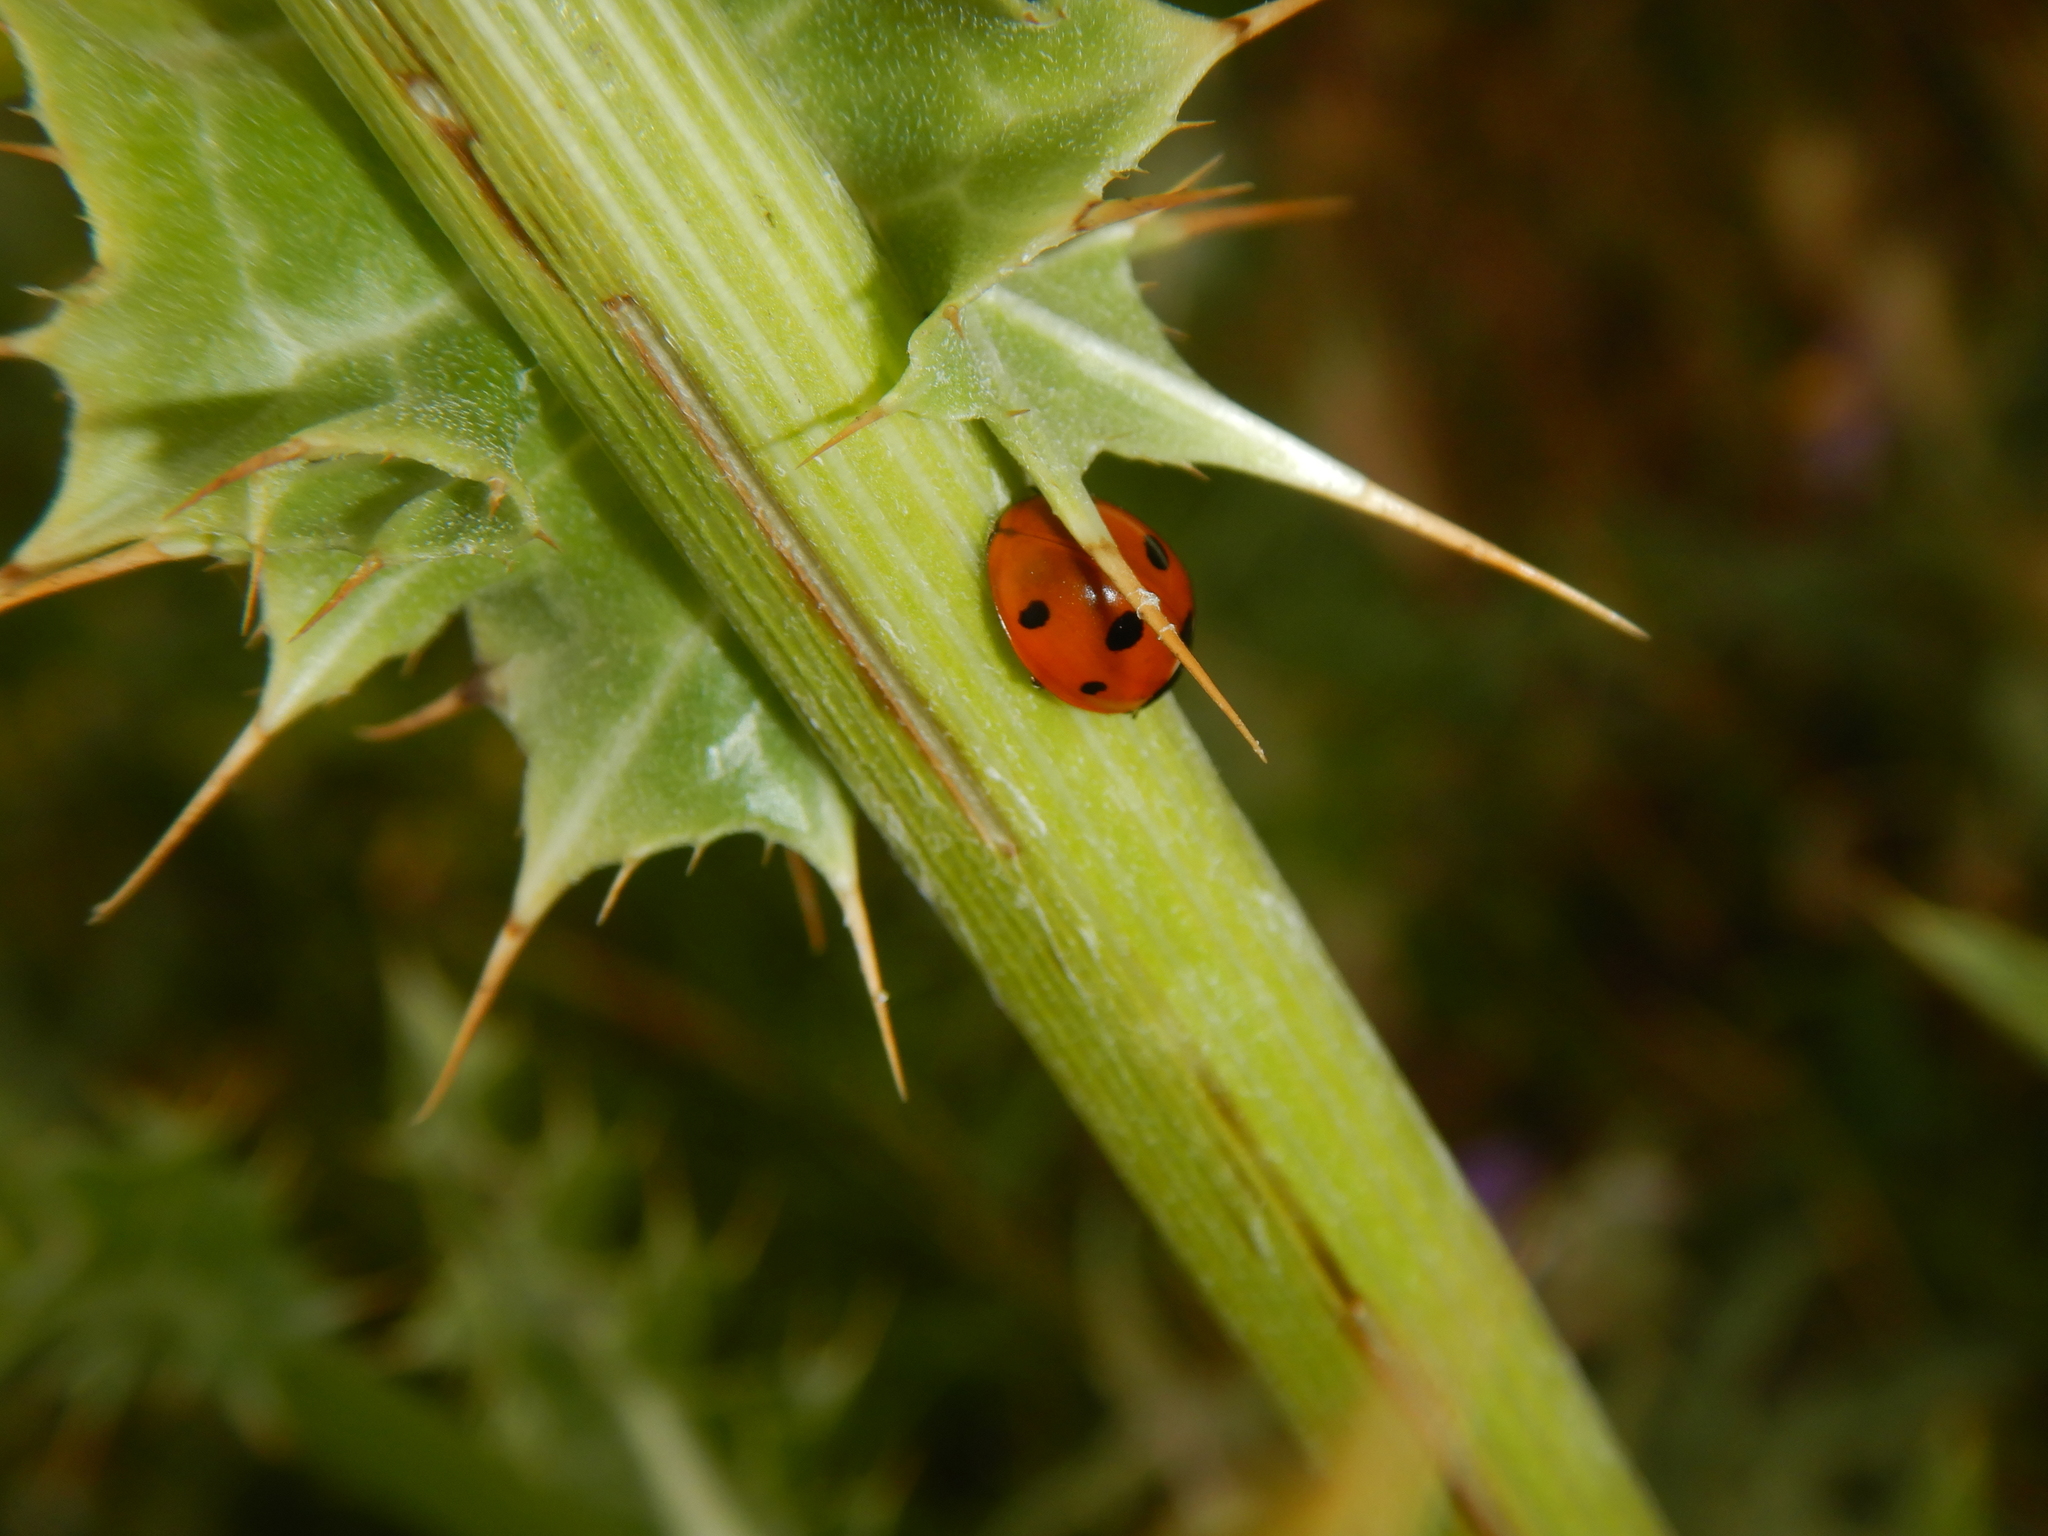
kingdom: Animalia
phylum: Arthropoda
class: Insecta
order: Coleoptera
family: Coccinellidae
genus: Coccinella
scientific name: Coccinella septempunctata
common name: Sevenspotted lady beetle
